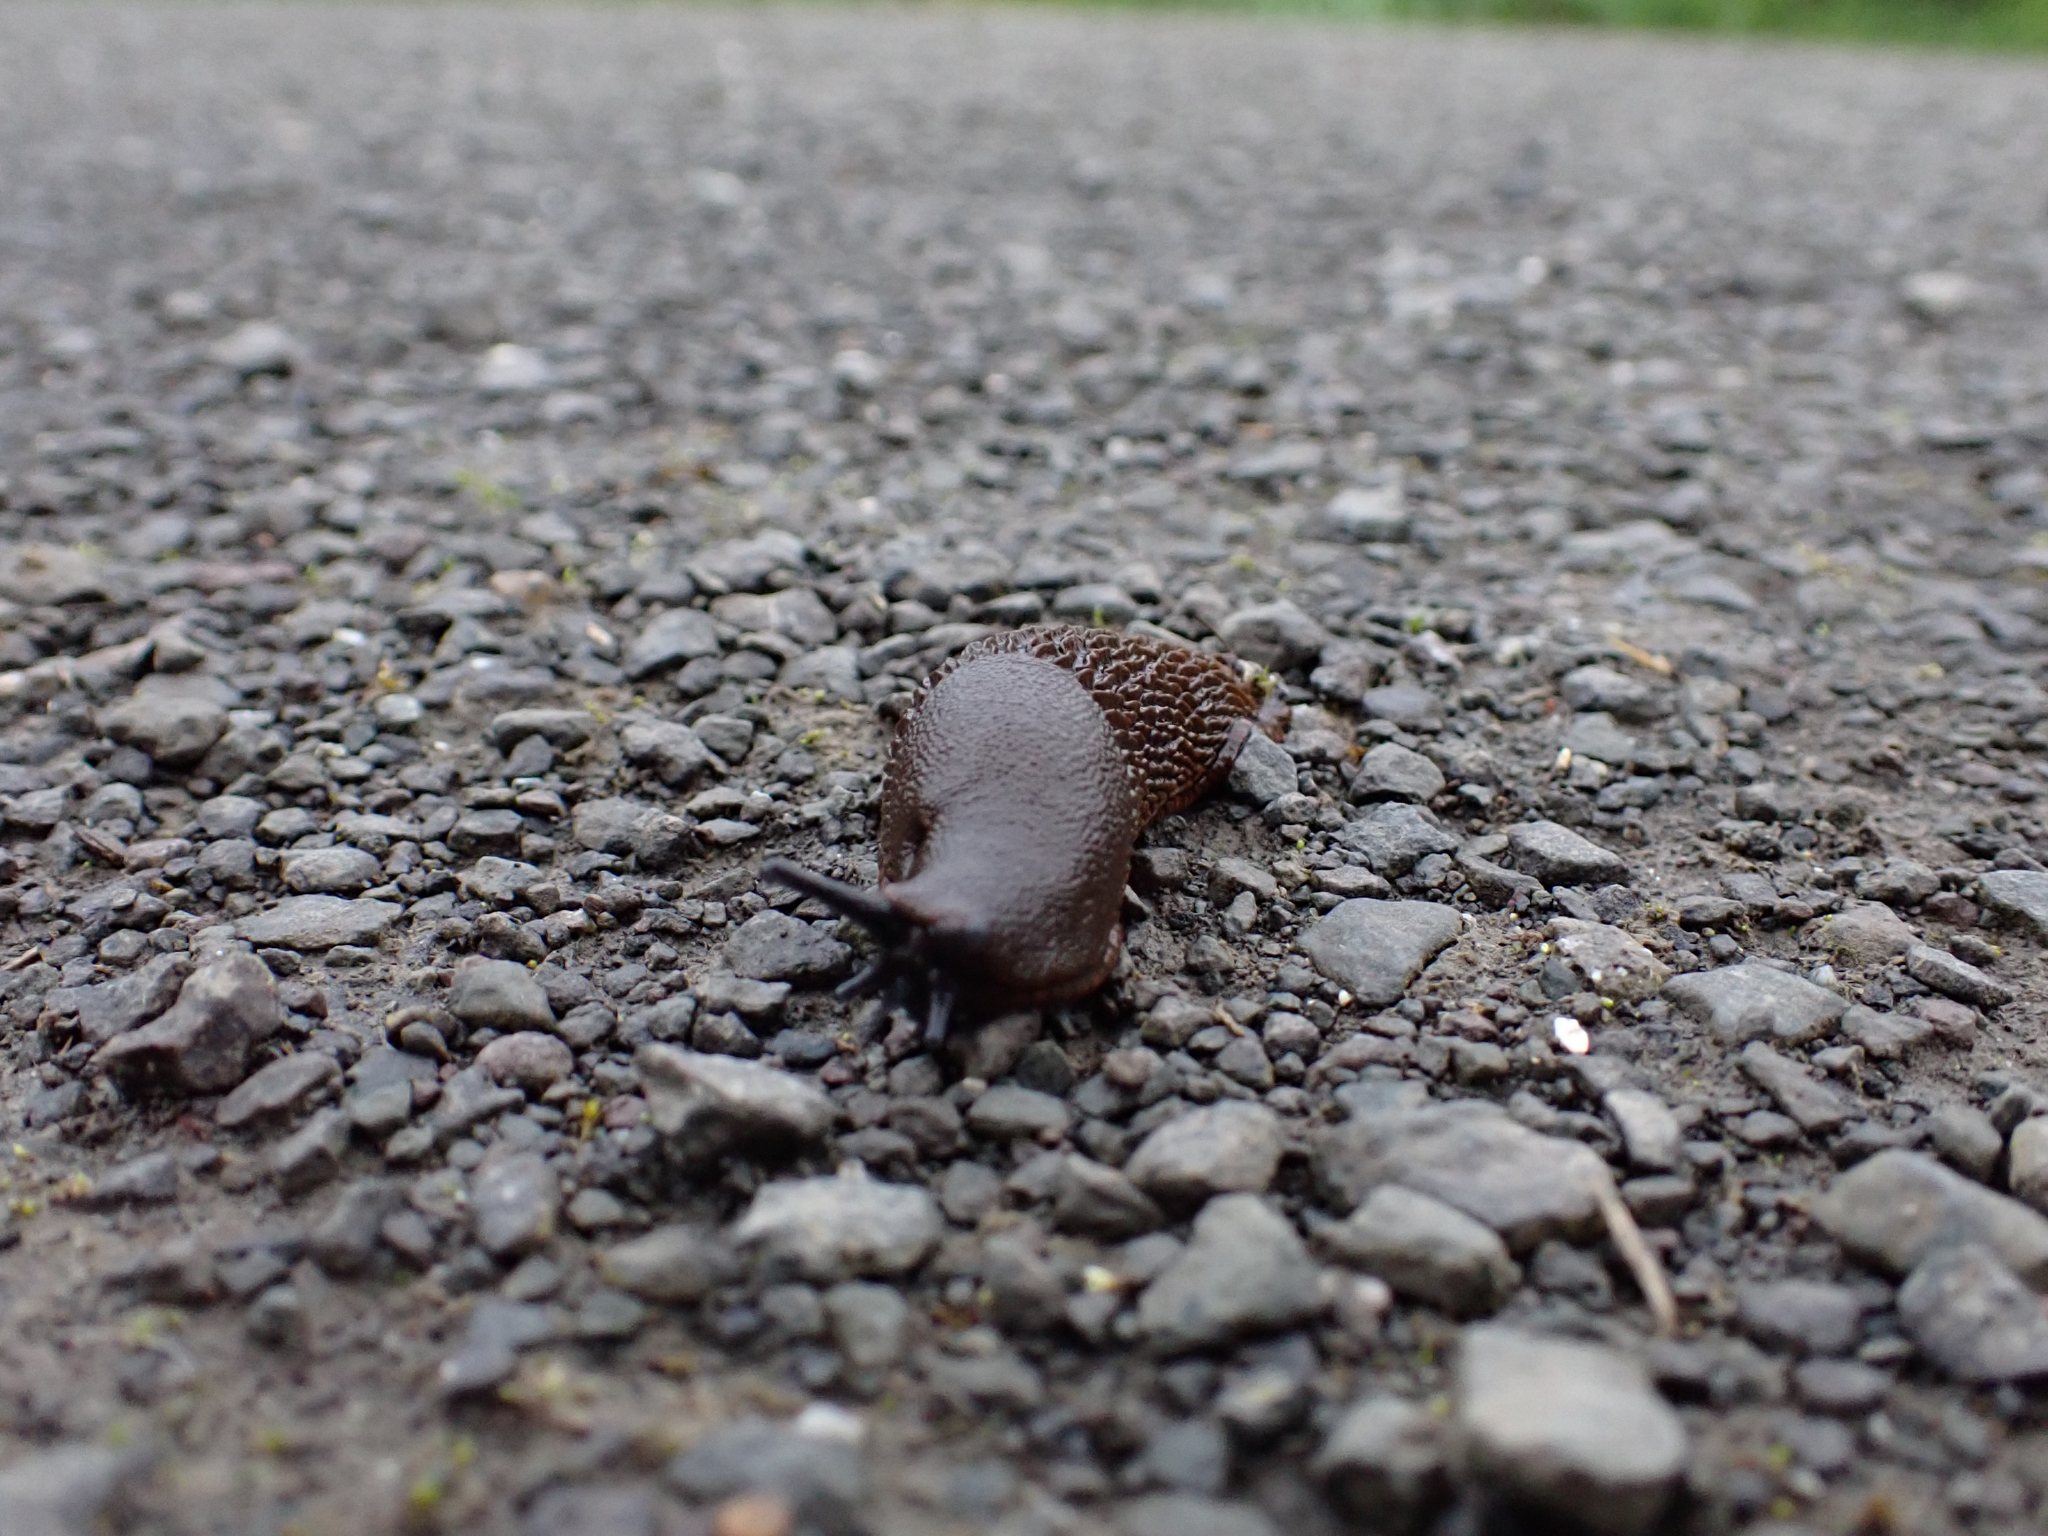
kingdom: Animalia
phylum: Mollusca
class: Gastropoda
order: Stylommatophora
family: Arionidae
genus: Arion
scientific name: Arion
